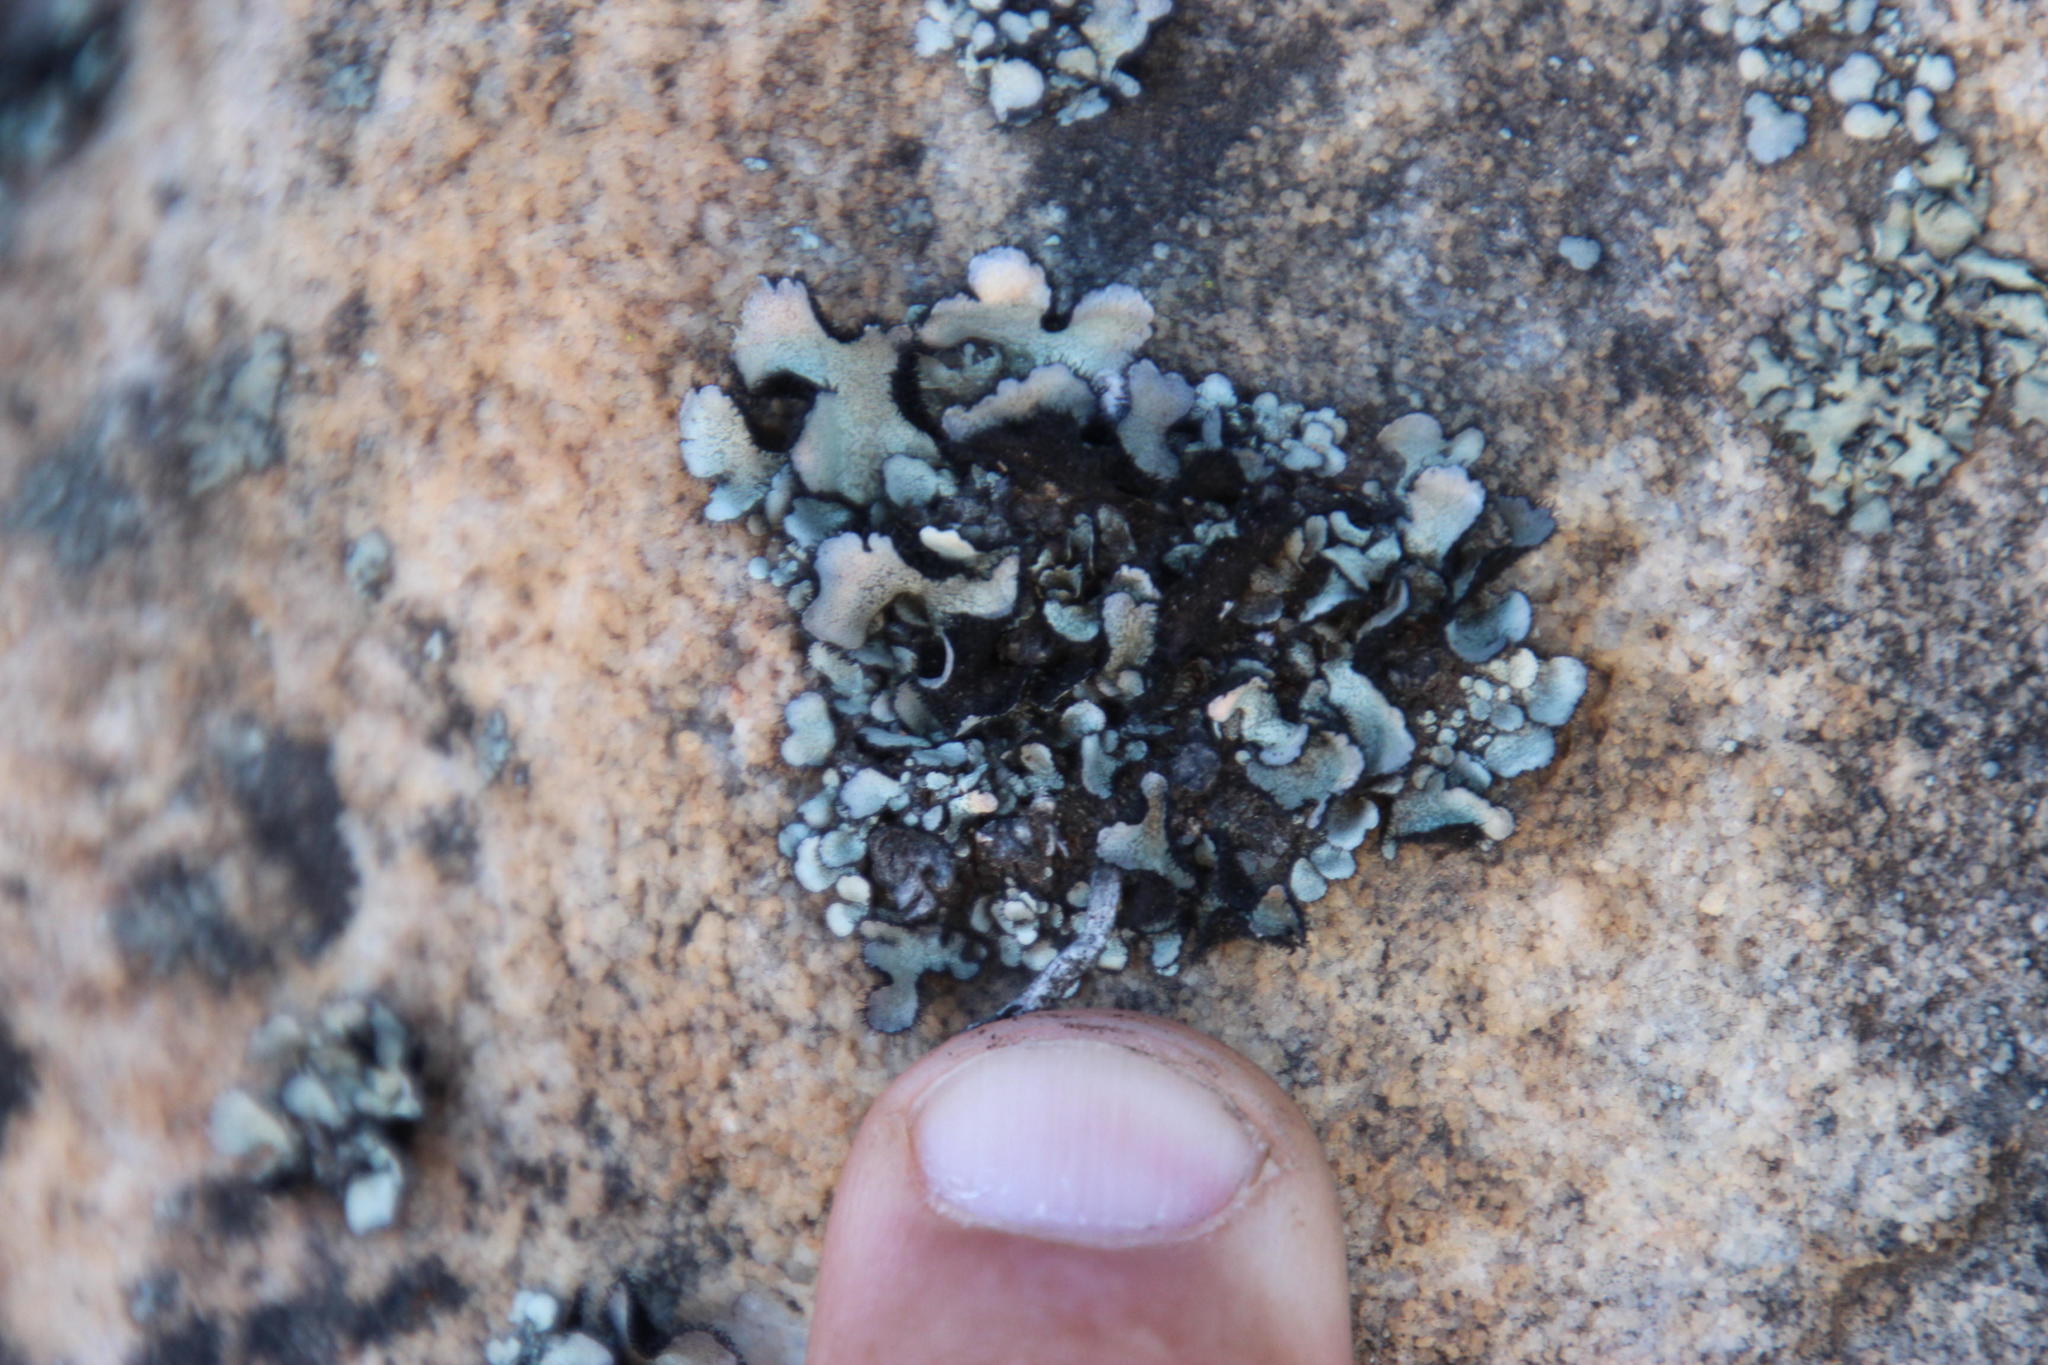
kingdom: Fungi
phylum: Ascomycota
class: Lecanoromycetes
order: Lecanorales
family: Parmeliaceae
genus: Xanthoparmelia
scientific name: Xanthoparmelia hottentotta
